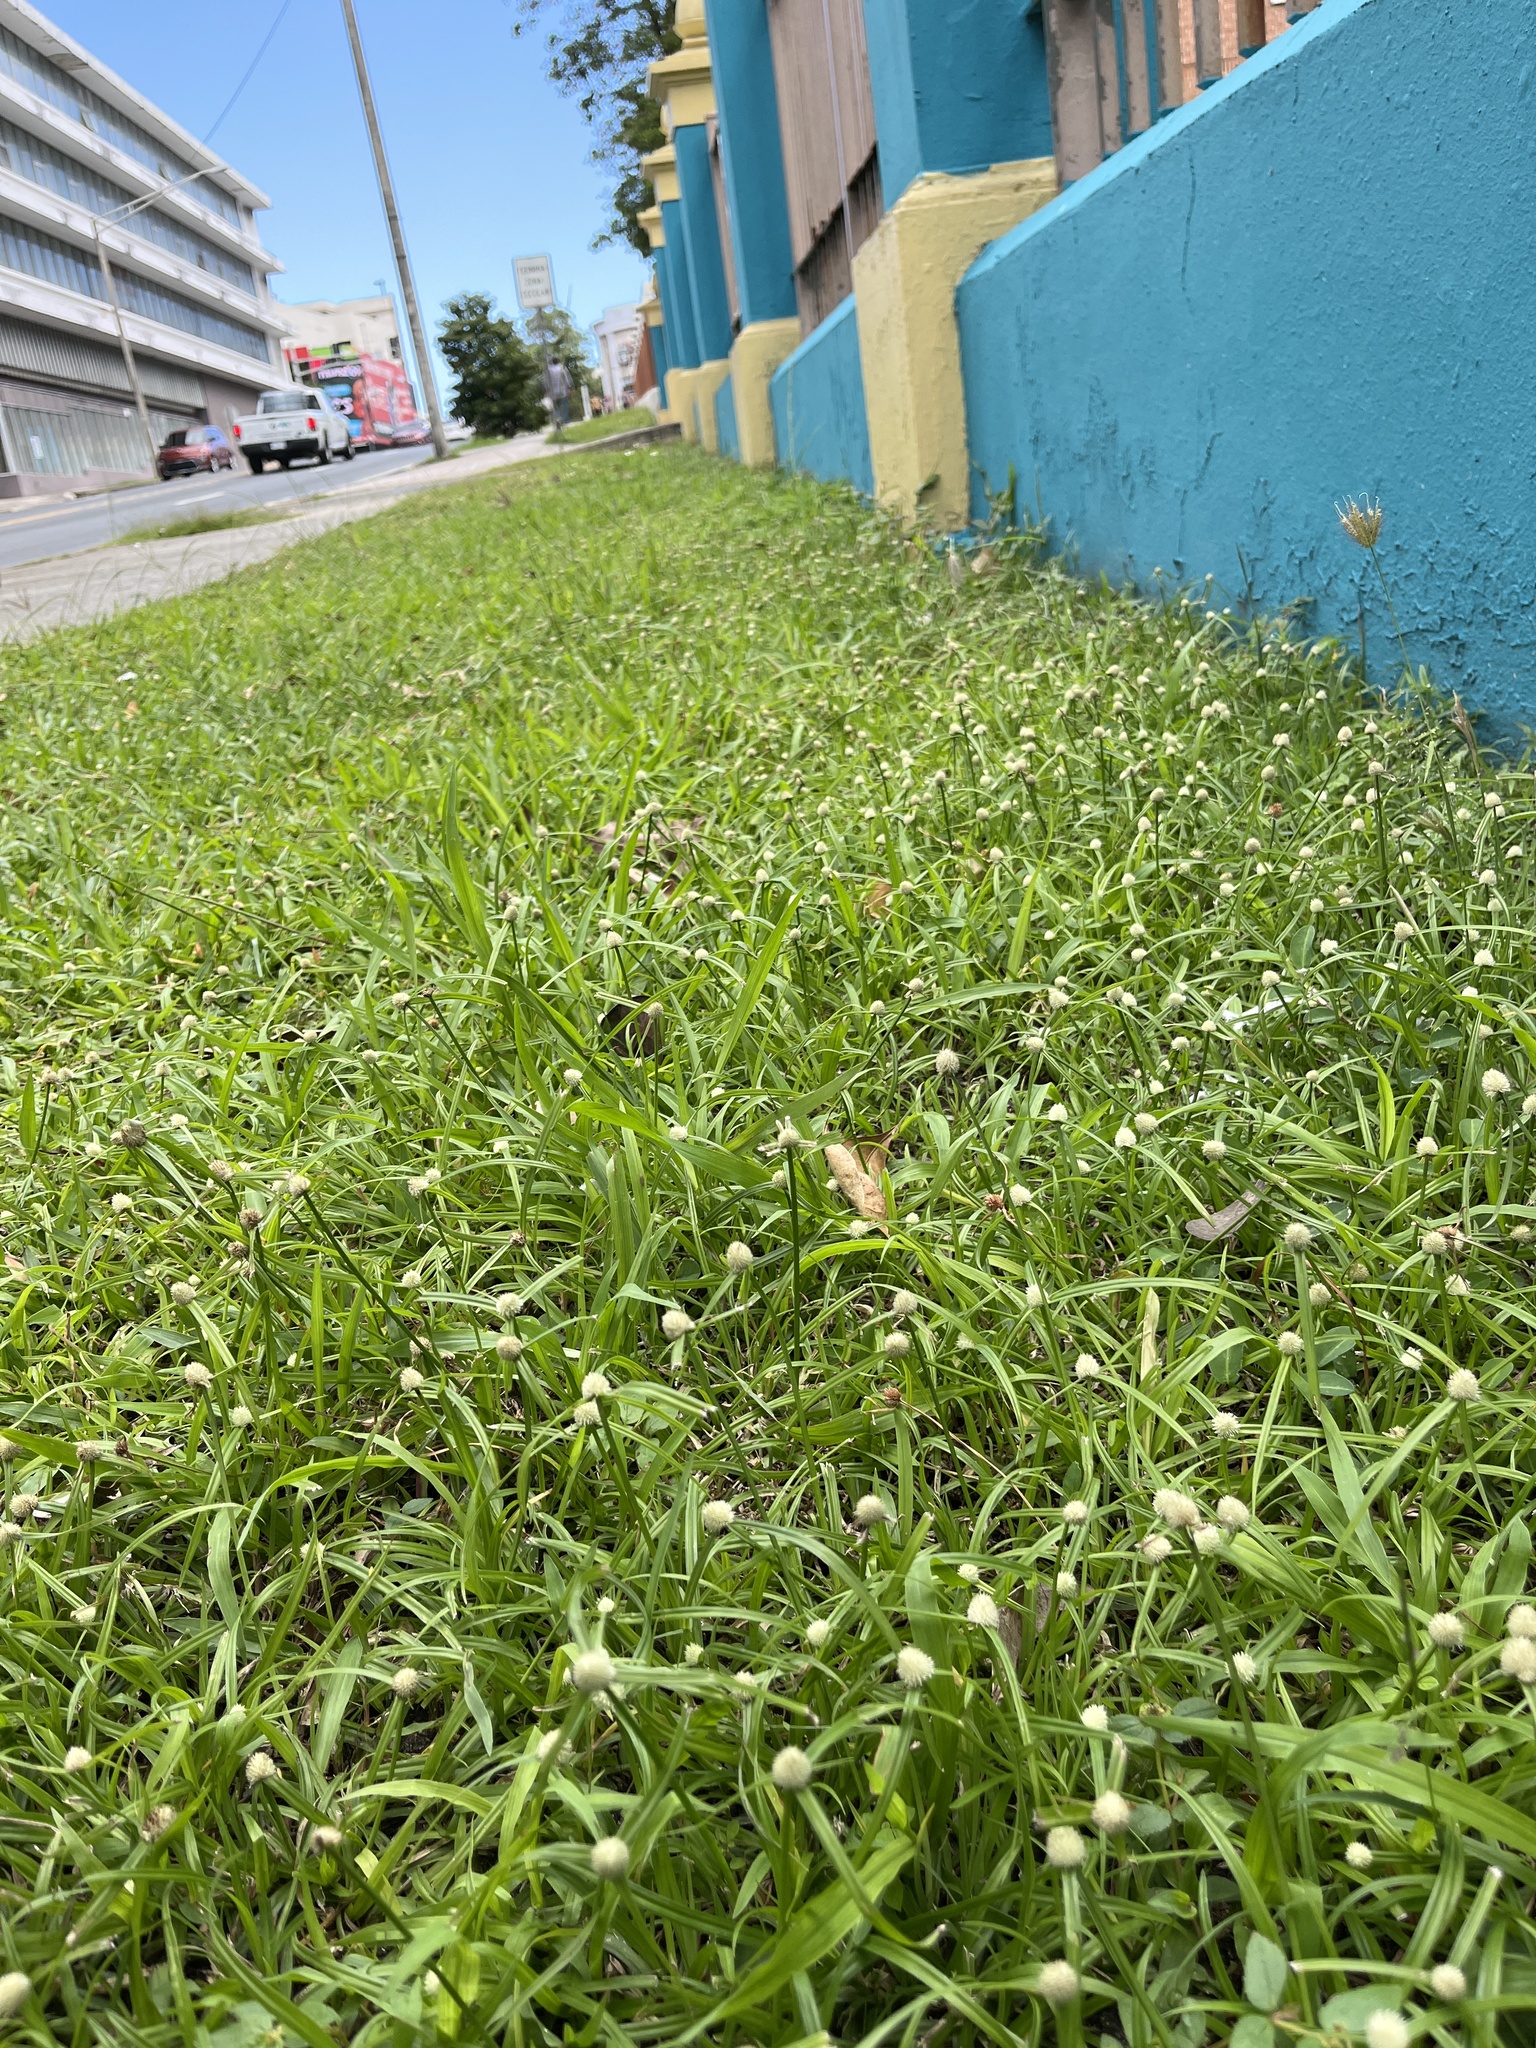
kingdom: Plantae
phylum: Tracheophyta
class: Liliopsida
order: Poales
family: Cyperaceae
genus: Cyperus
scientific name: Cyperus mindorensis
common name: Flatsedge
